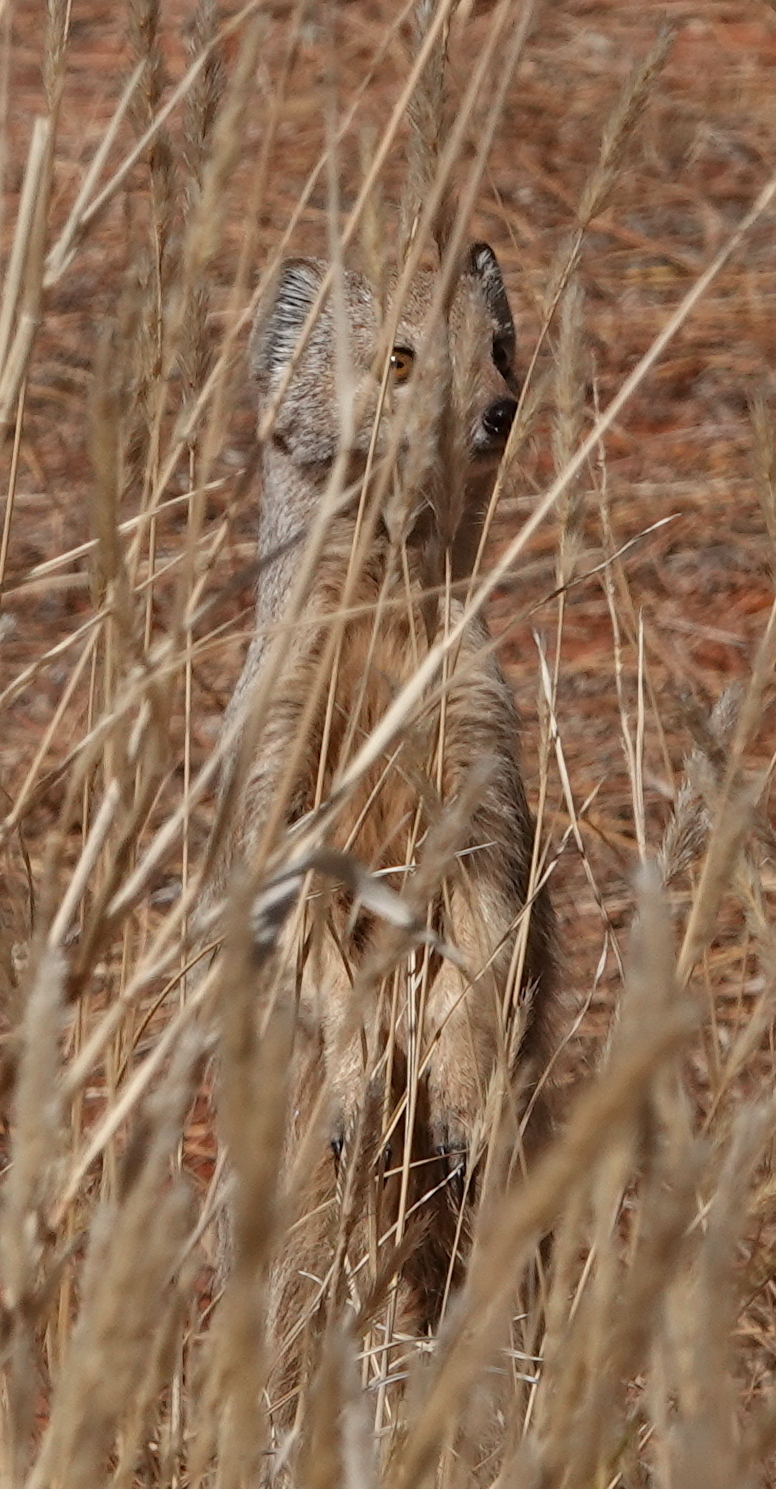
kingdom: Animalia
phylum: Chordata
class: Mammalia
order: Carnivora
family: Herpestidae
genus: Cynictis
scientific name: Cynictis penicillata
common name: Yellow mongoose
